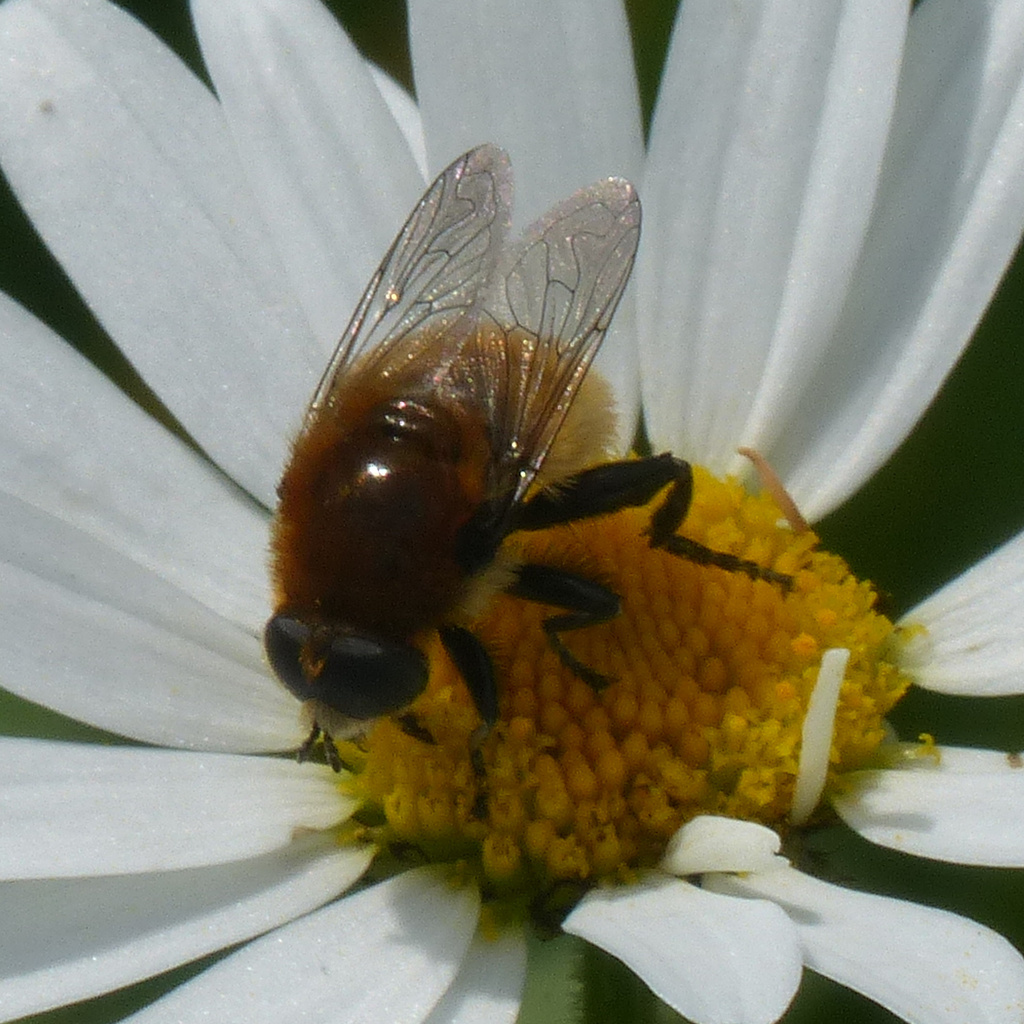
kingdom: Animalia
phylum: Arthropoda
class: Insecta
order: Diptera
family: Syrphidae
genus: Merodon
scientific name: Merodon equestris
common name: Greater bulb-fly
